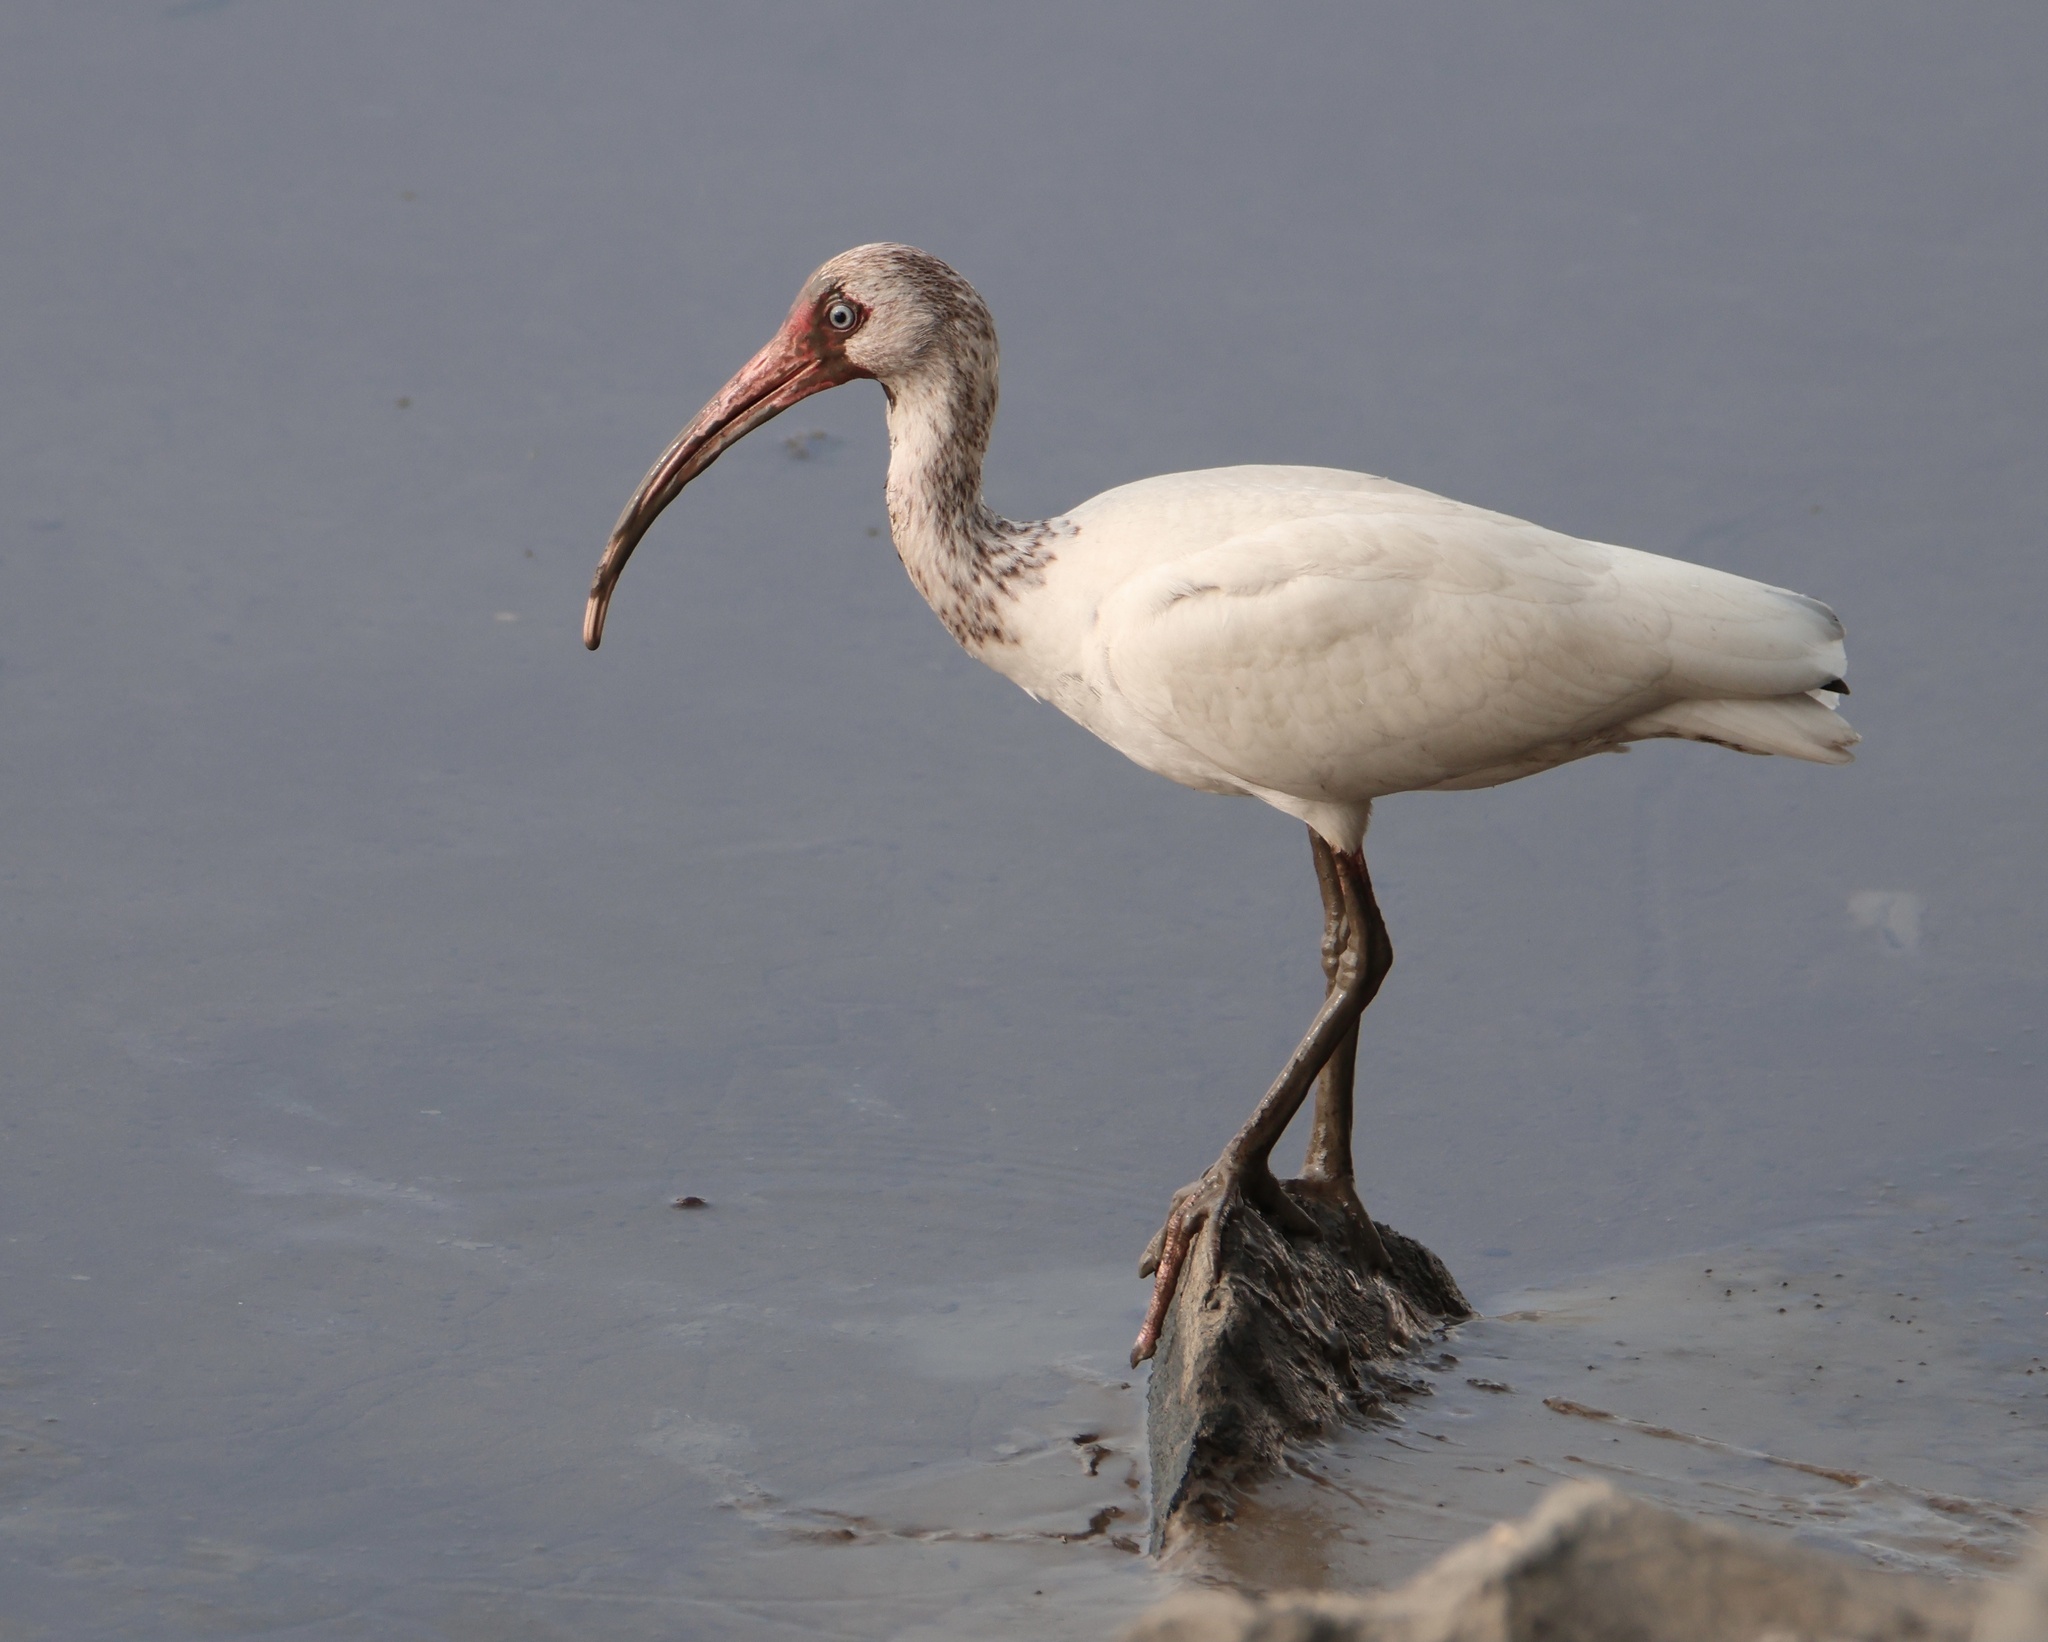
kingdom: Animalia
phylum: Chordata
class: Aves
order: Pelecaniformes
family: Threskiornithidae
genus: Eudocimus
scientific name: Eudocimus albus
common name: White ibis
